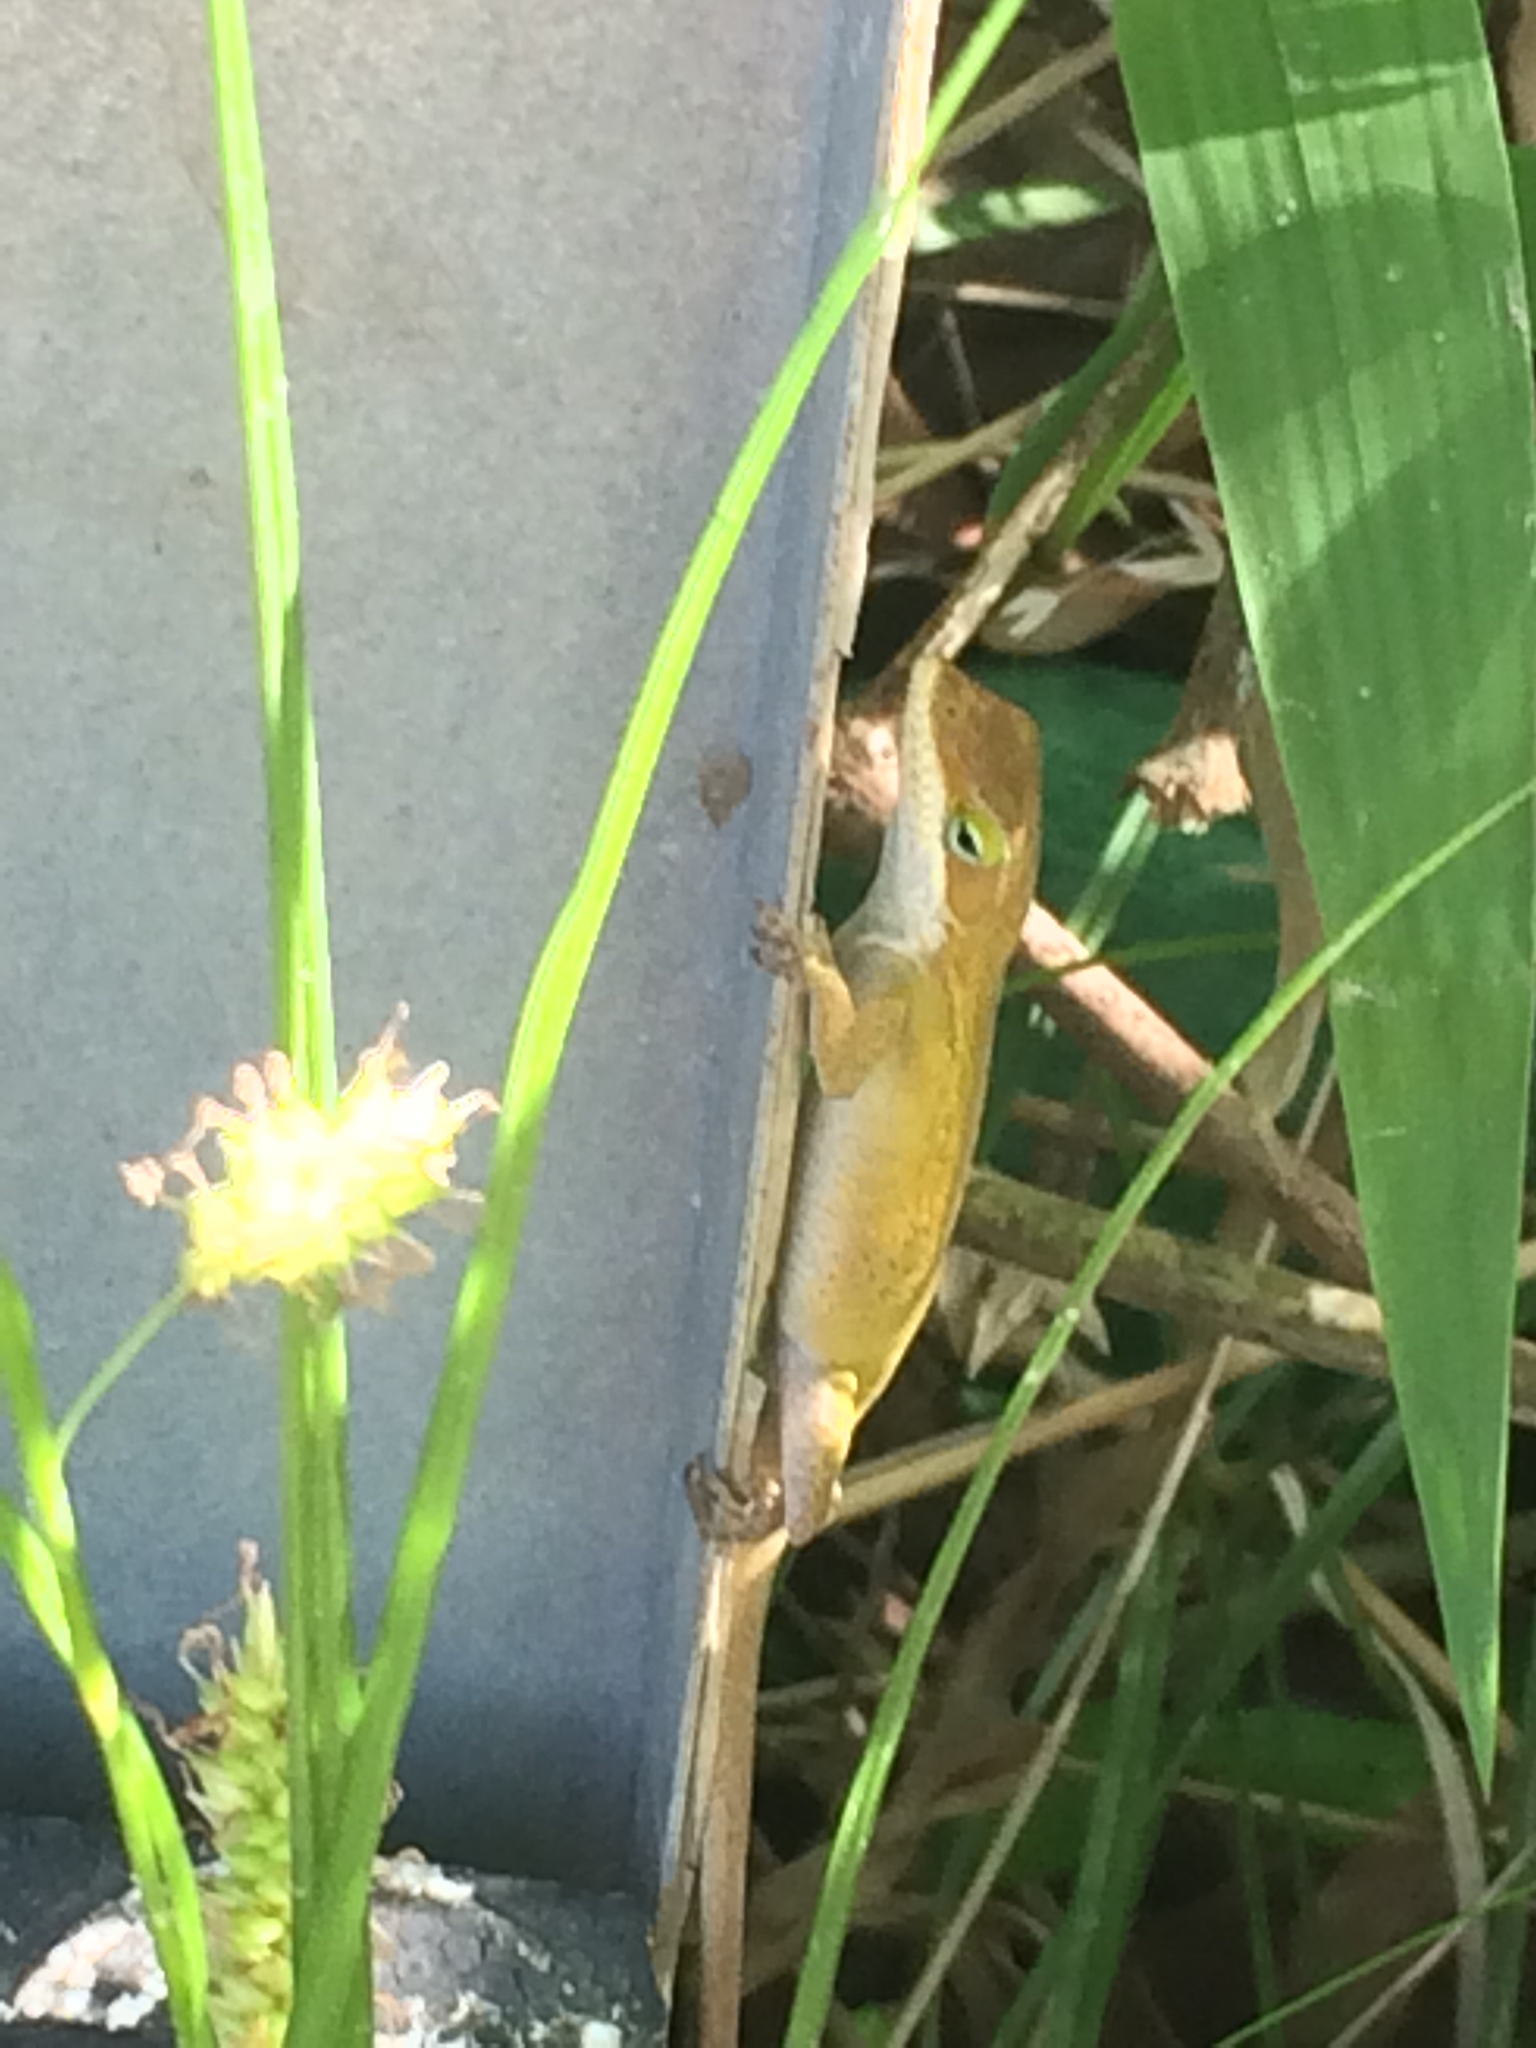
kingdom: Animalia
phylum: Chordata
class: Squamata
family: Dactyloidae
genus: Anolis
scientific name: Anolis carolinensis
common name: Green anole
